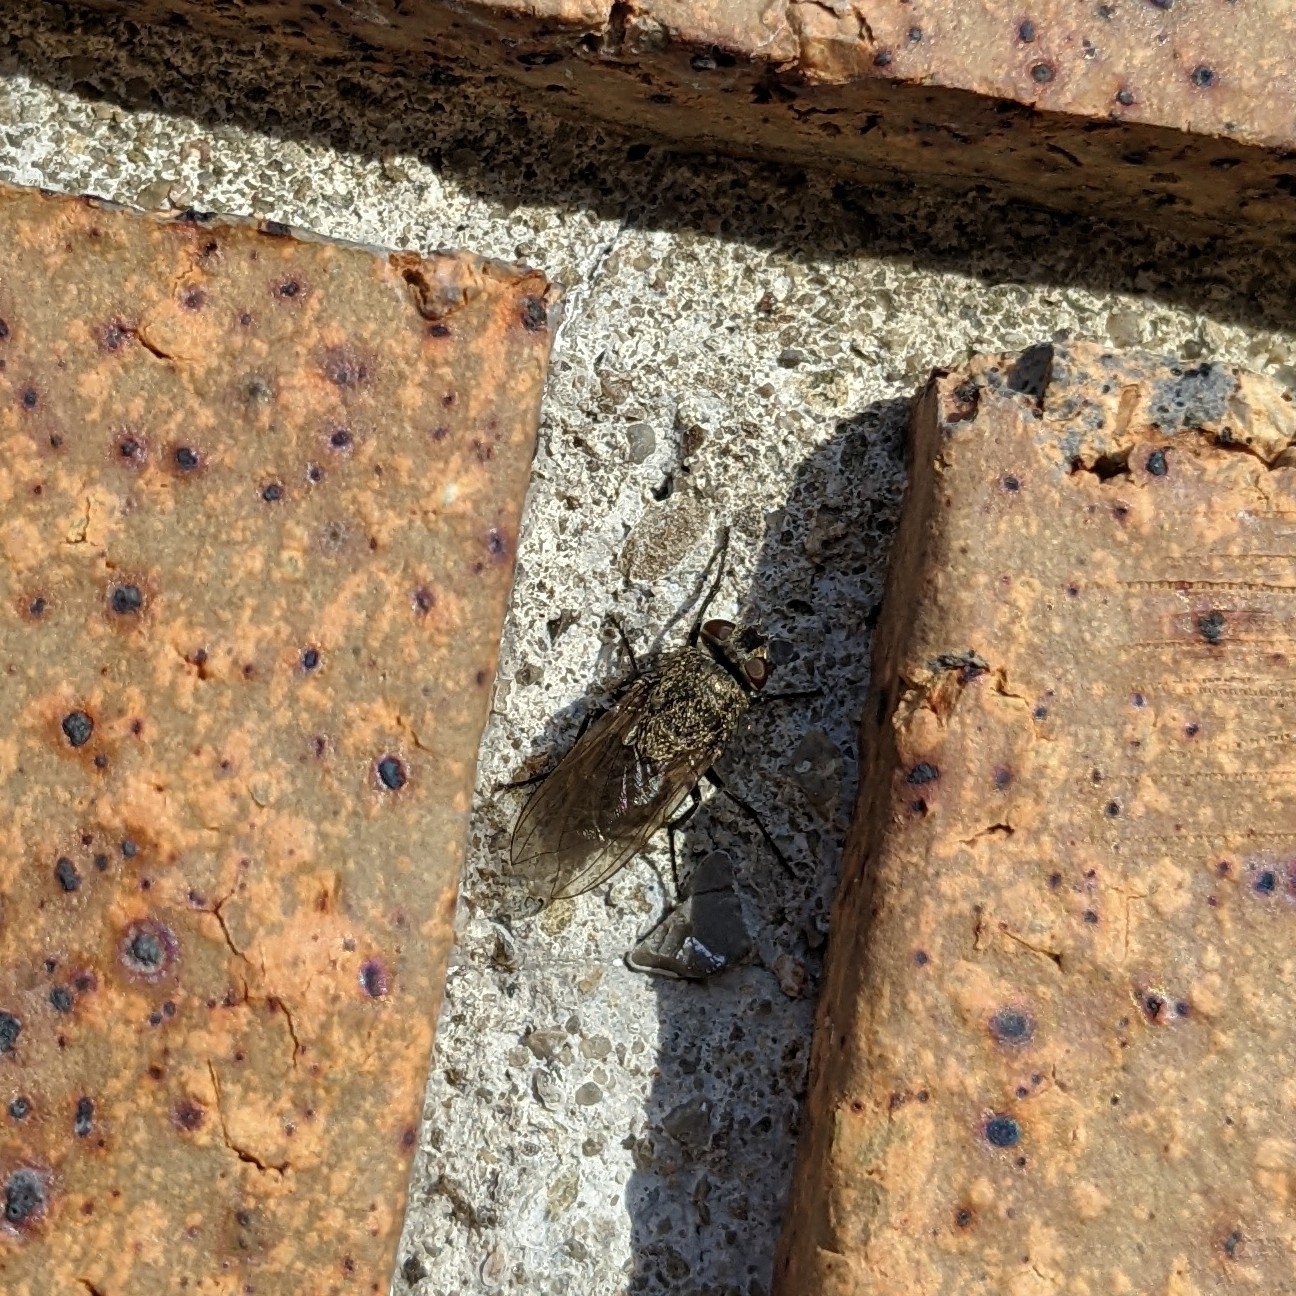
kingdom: Animalia
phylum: Arthropoda
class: Insecta
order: Diptera
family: Polleniidae
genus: Pollenia
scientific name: Pollenia
